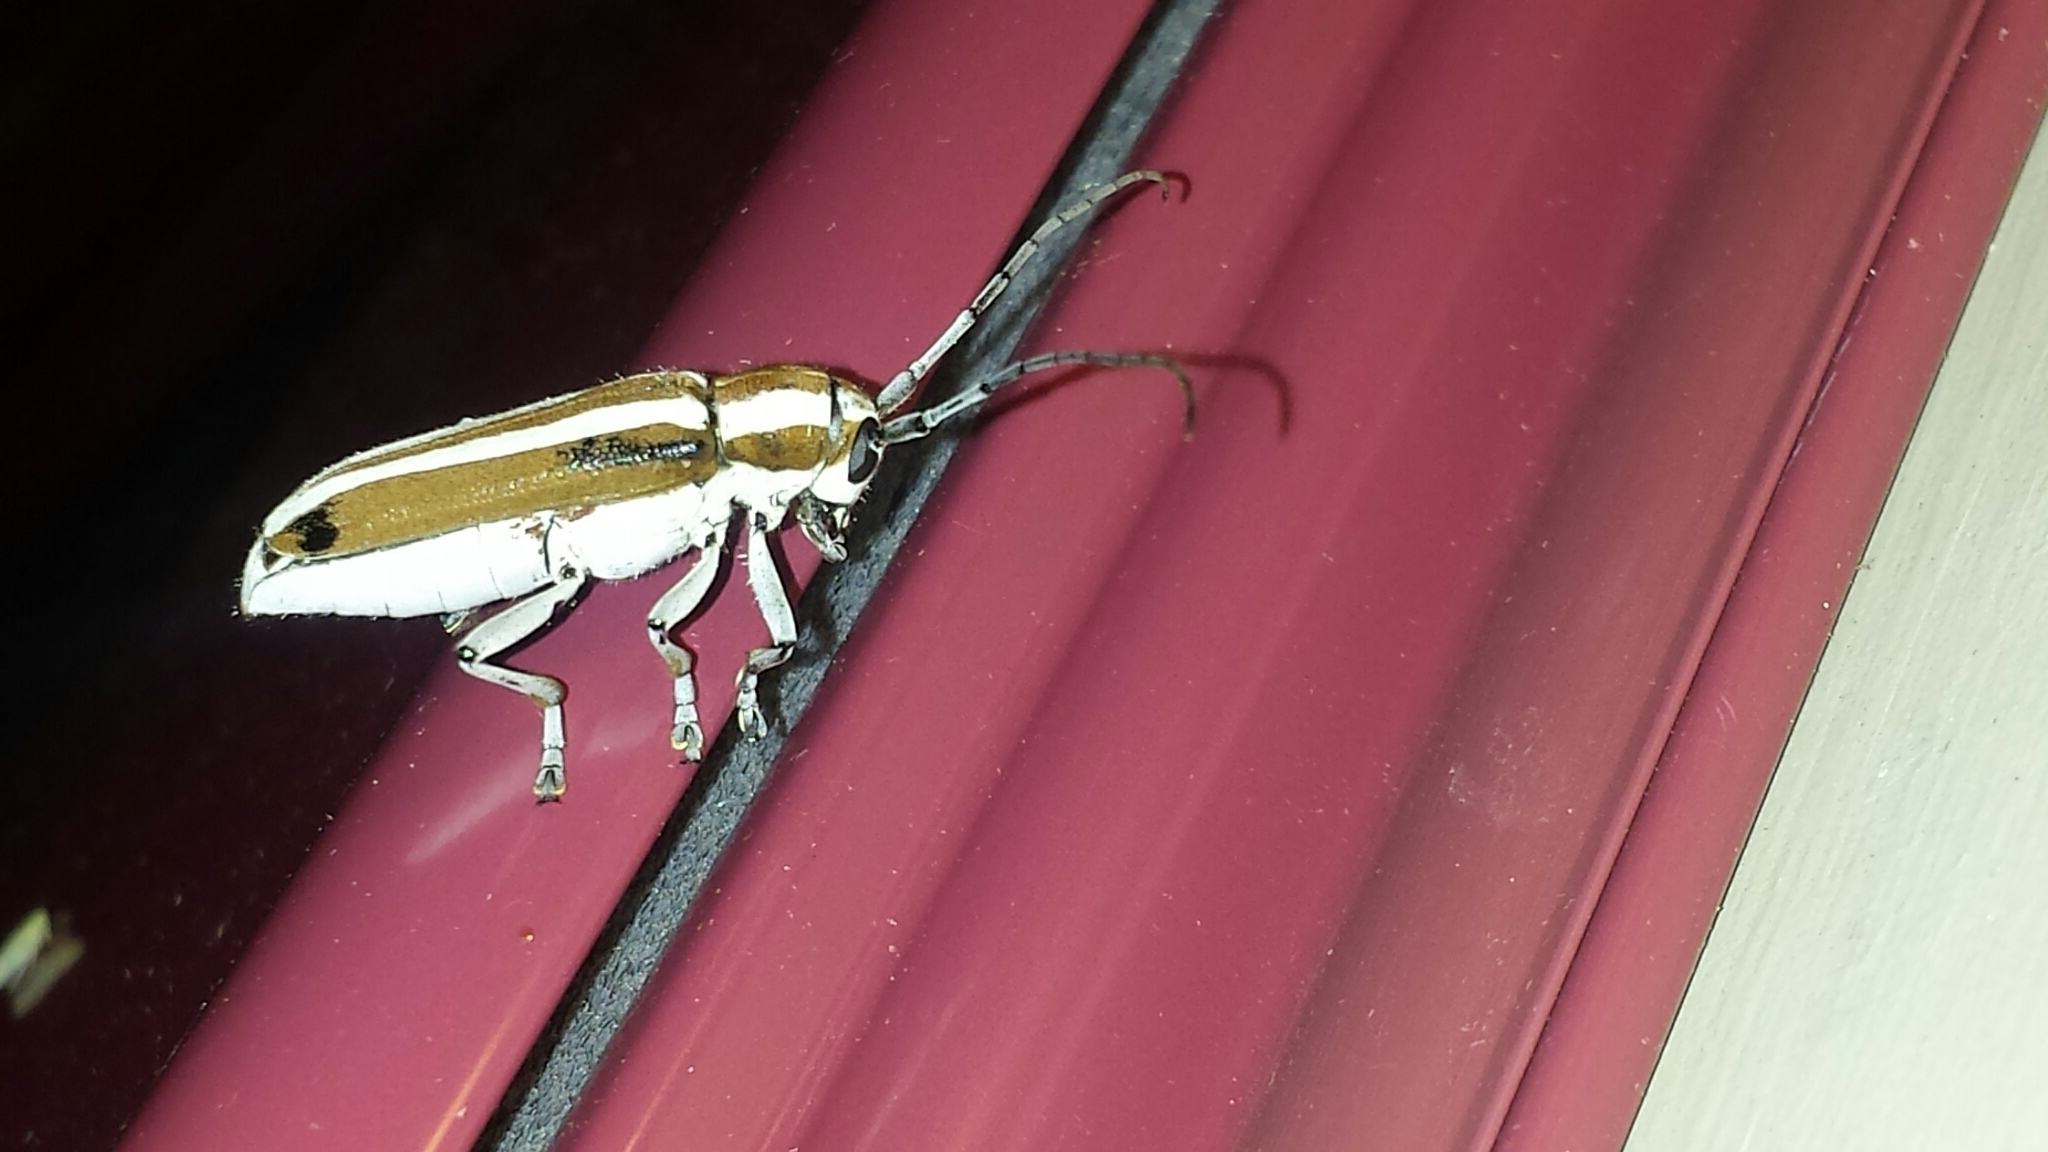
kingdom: Animalia
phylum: Arthropoda
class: Insecta
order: Coleoptera
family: Cerambycidae
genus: Saperda
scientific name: Saperda candida
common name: Round-headed borer
